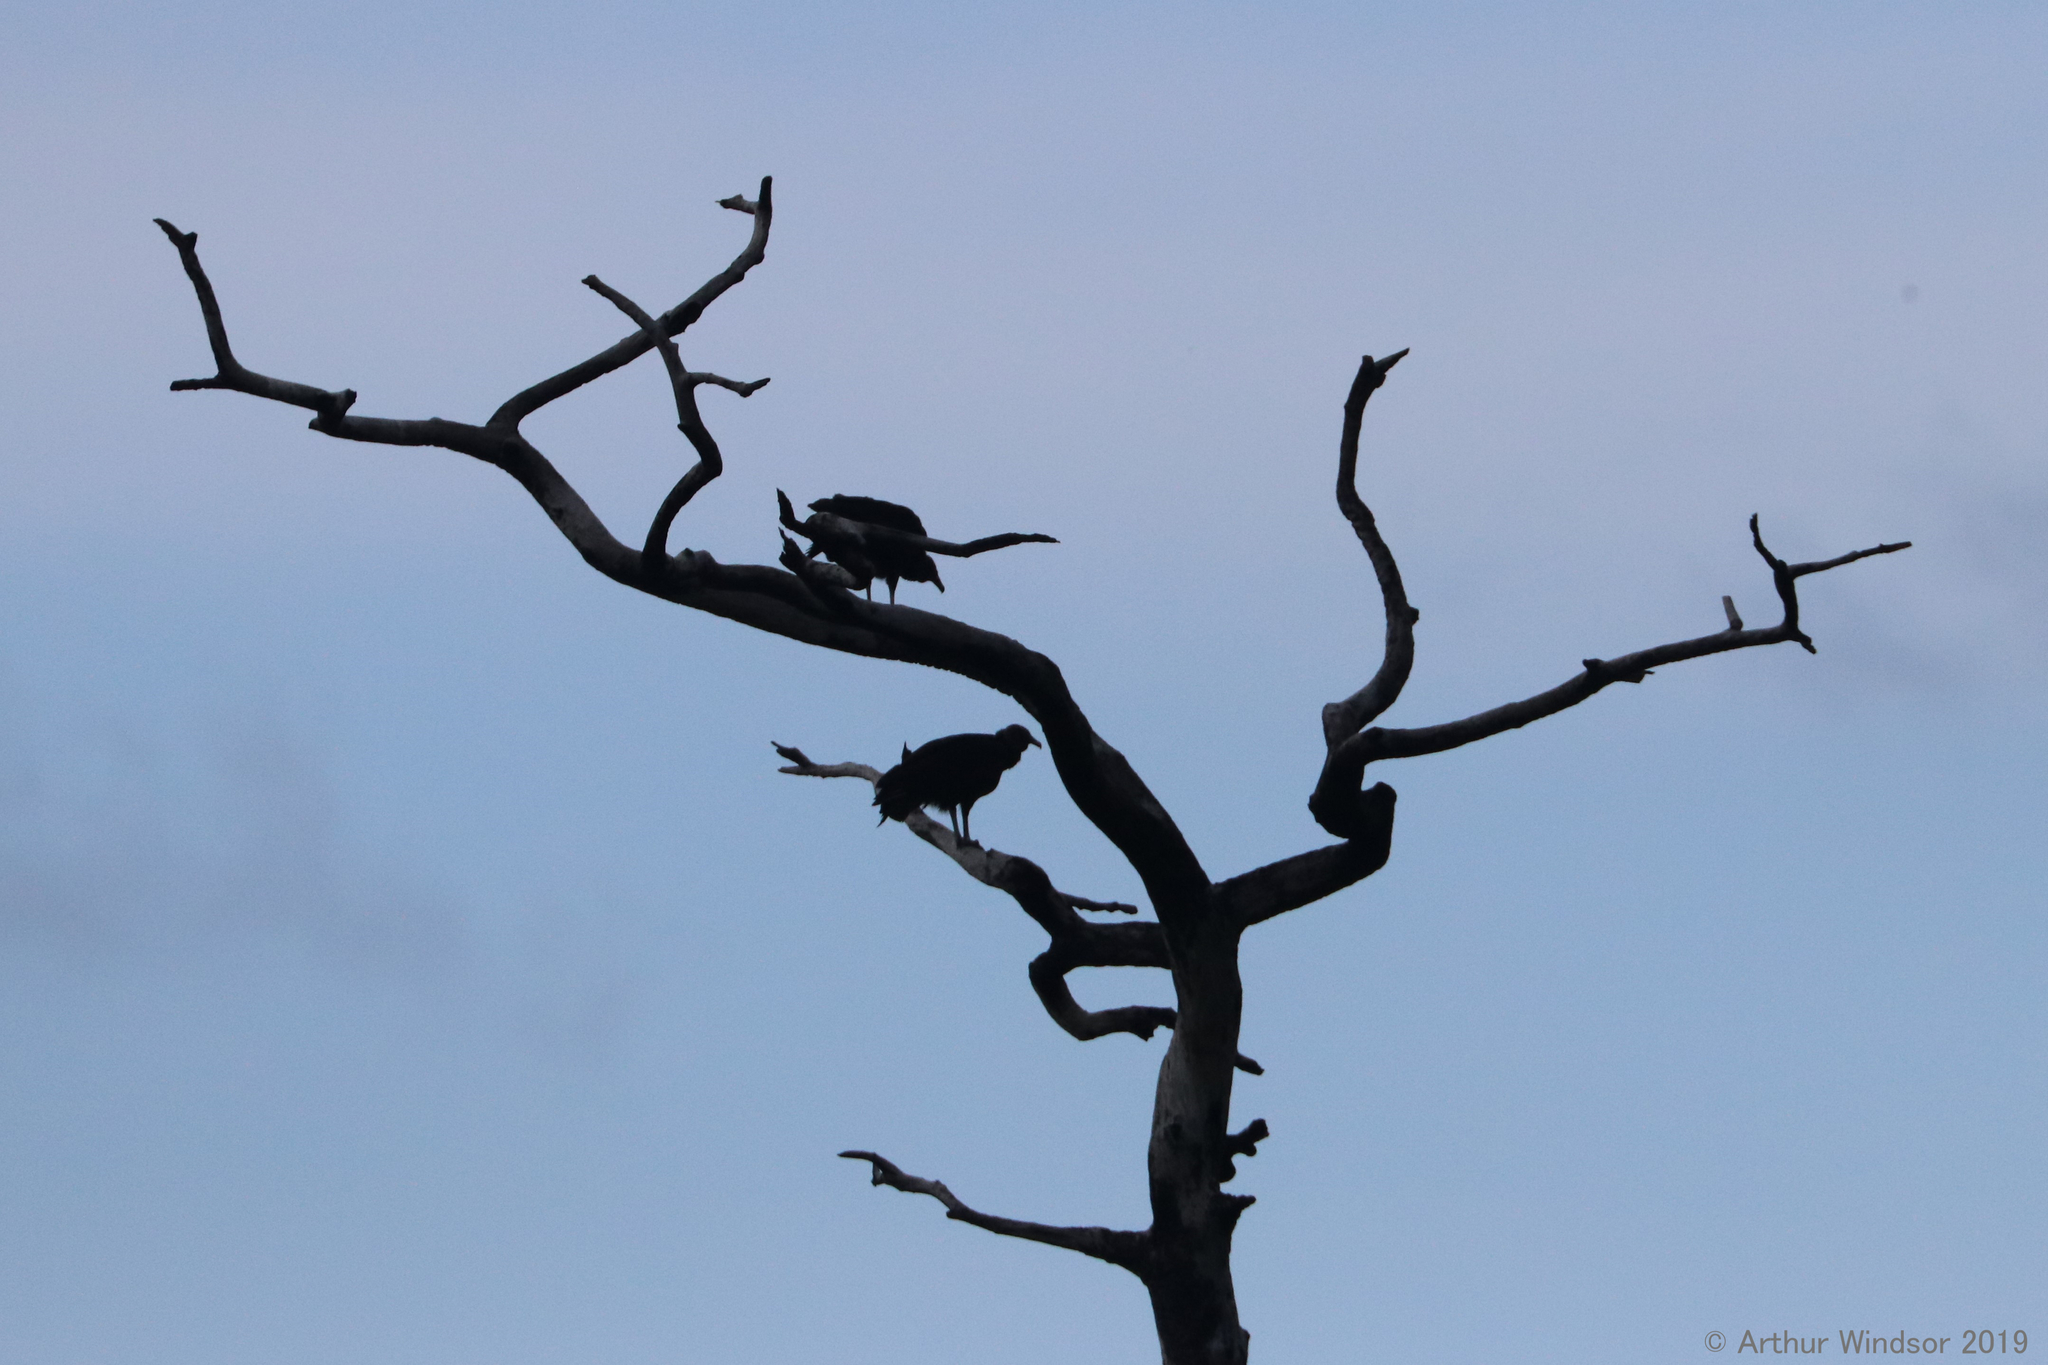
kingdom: Animalia
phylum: Chordata
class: Aves
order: Accipitriformes
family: Cathartidae
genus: Coragyps
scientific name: Coragyps atratus
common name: Black vulture
